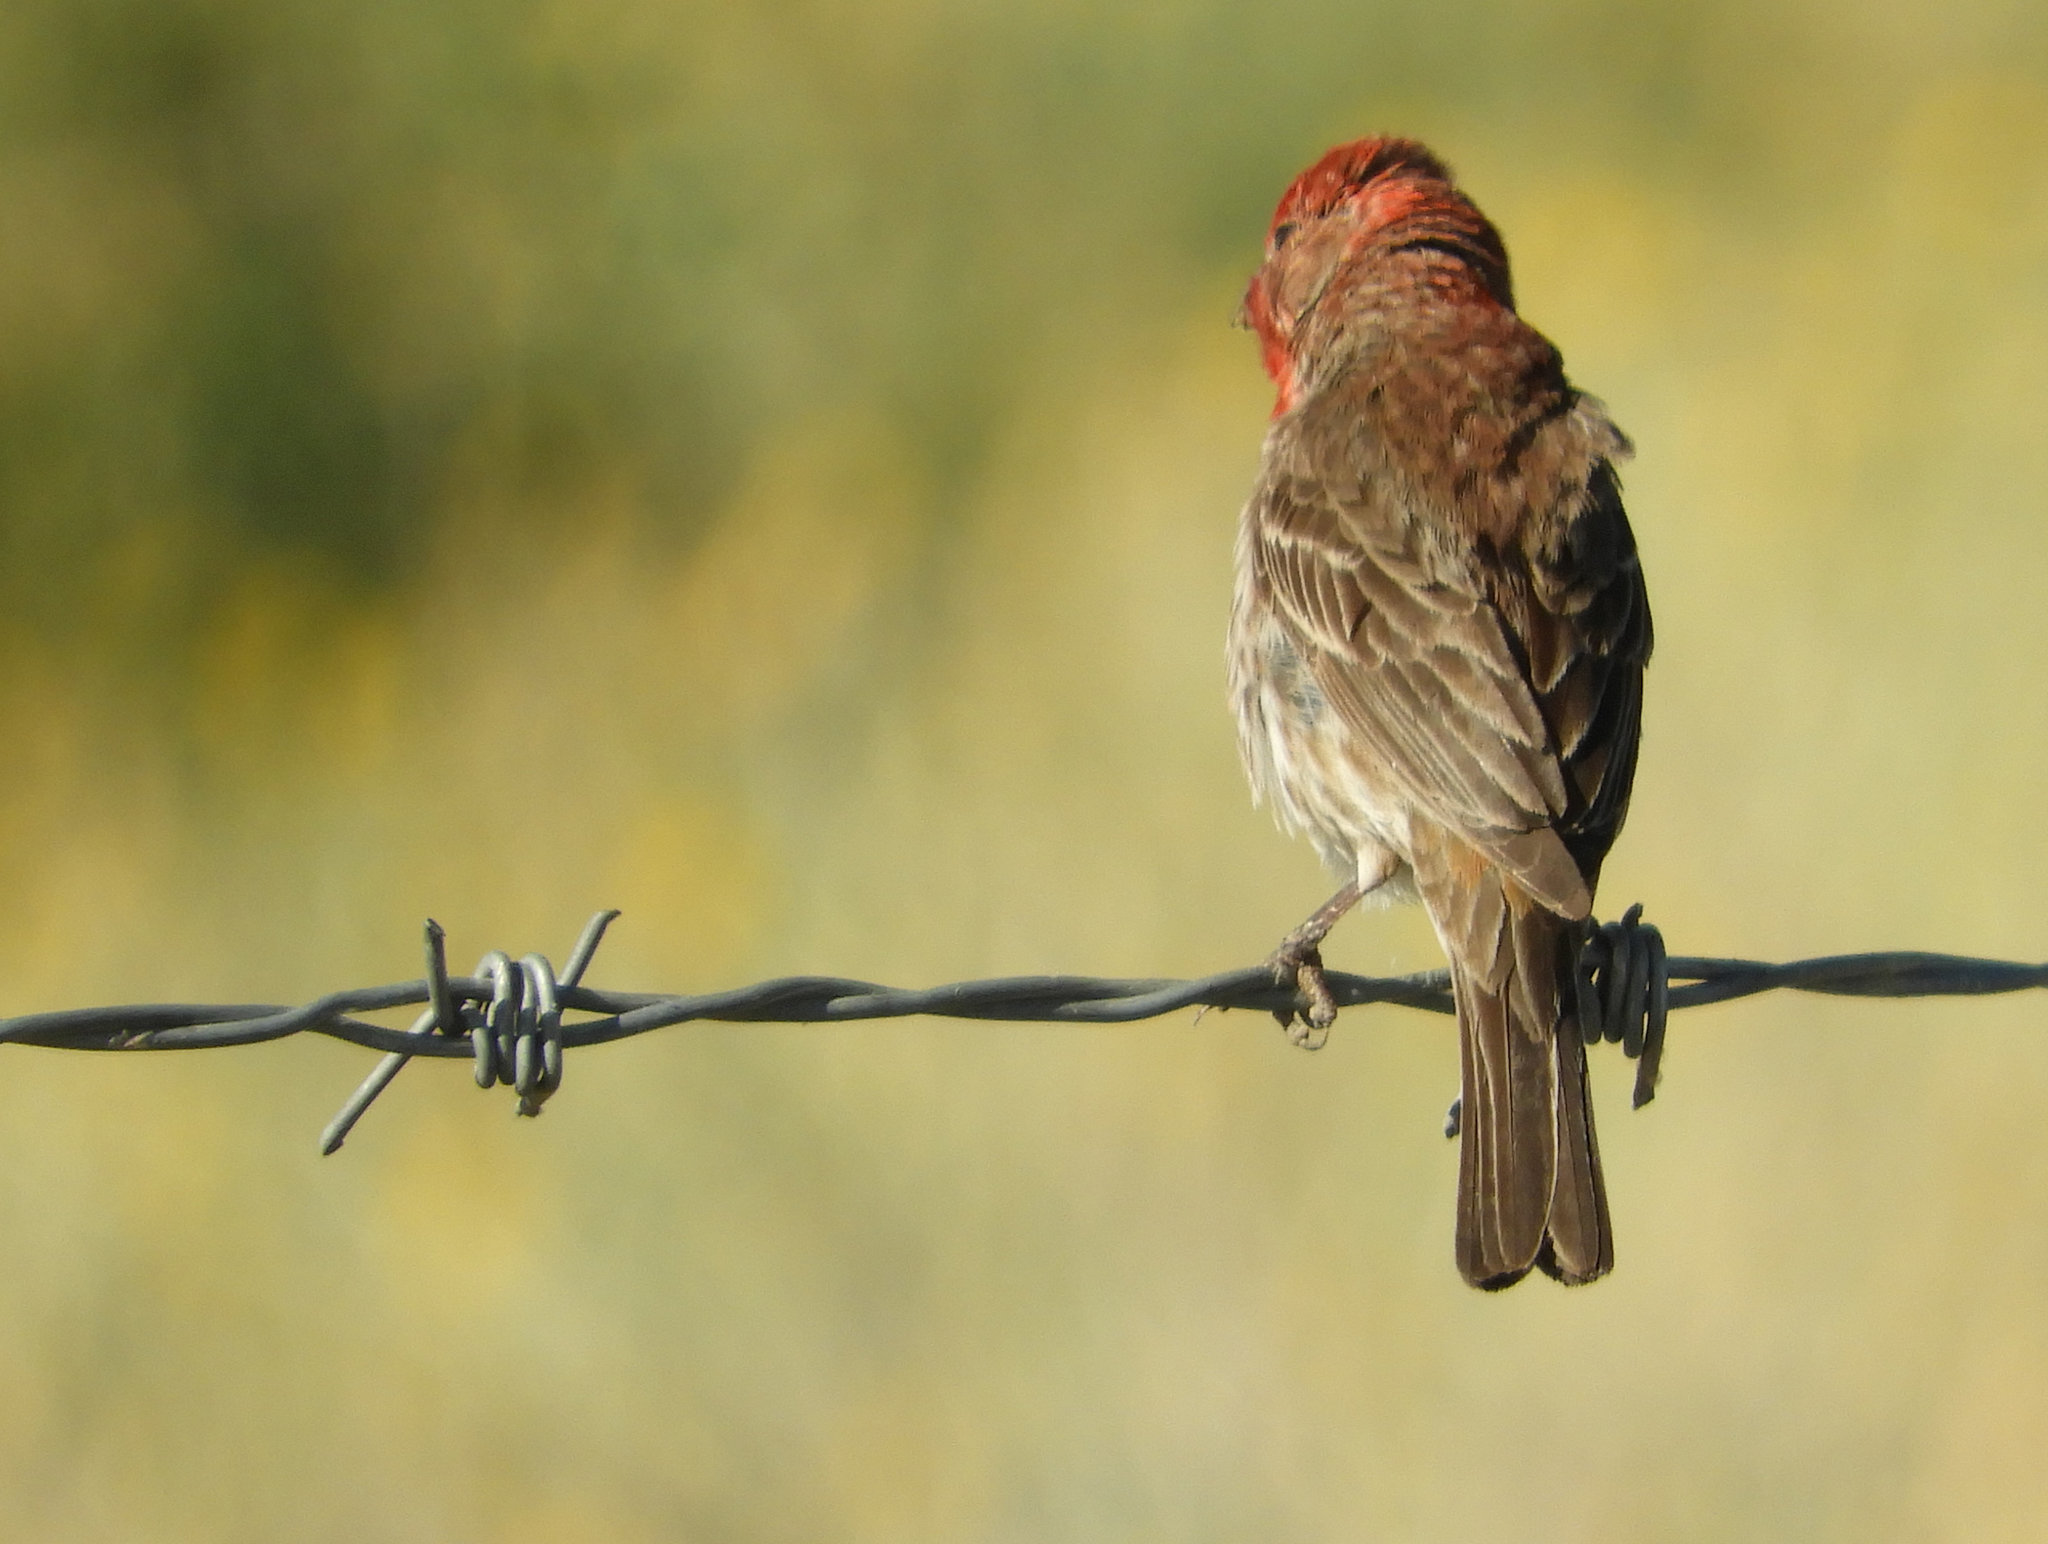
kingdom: Animalia
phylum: Chordata
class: Aves
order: Passeriformes
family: Fringillidae
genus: Haemorhous
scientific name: Haemorhous mexicanus
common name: House finch
